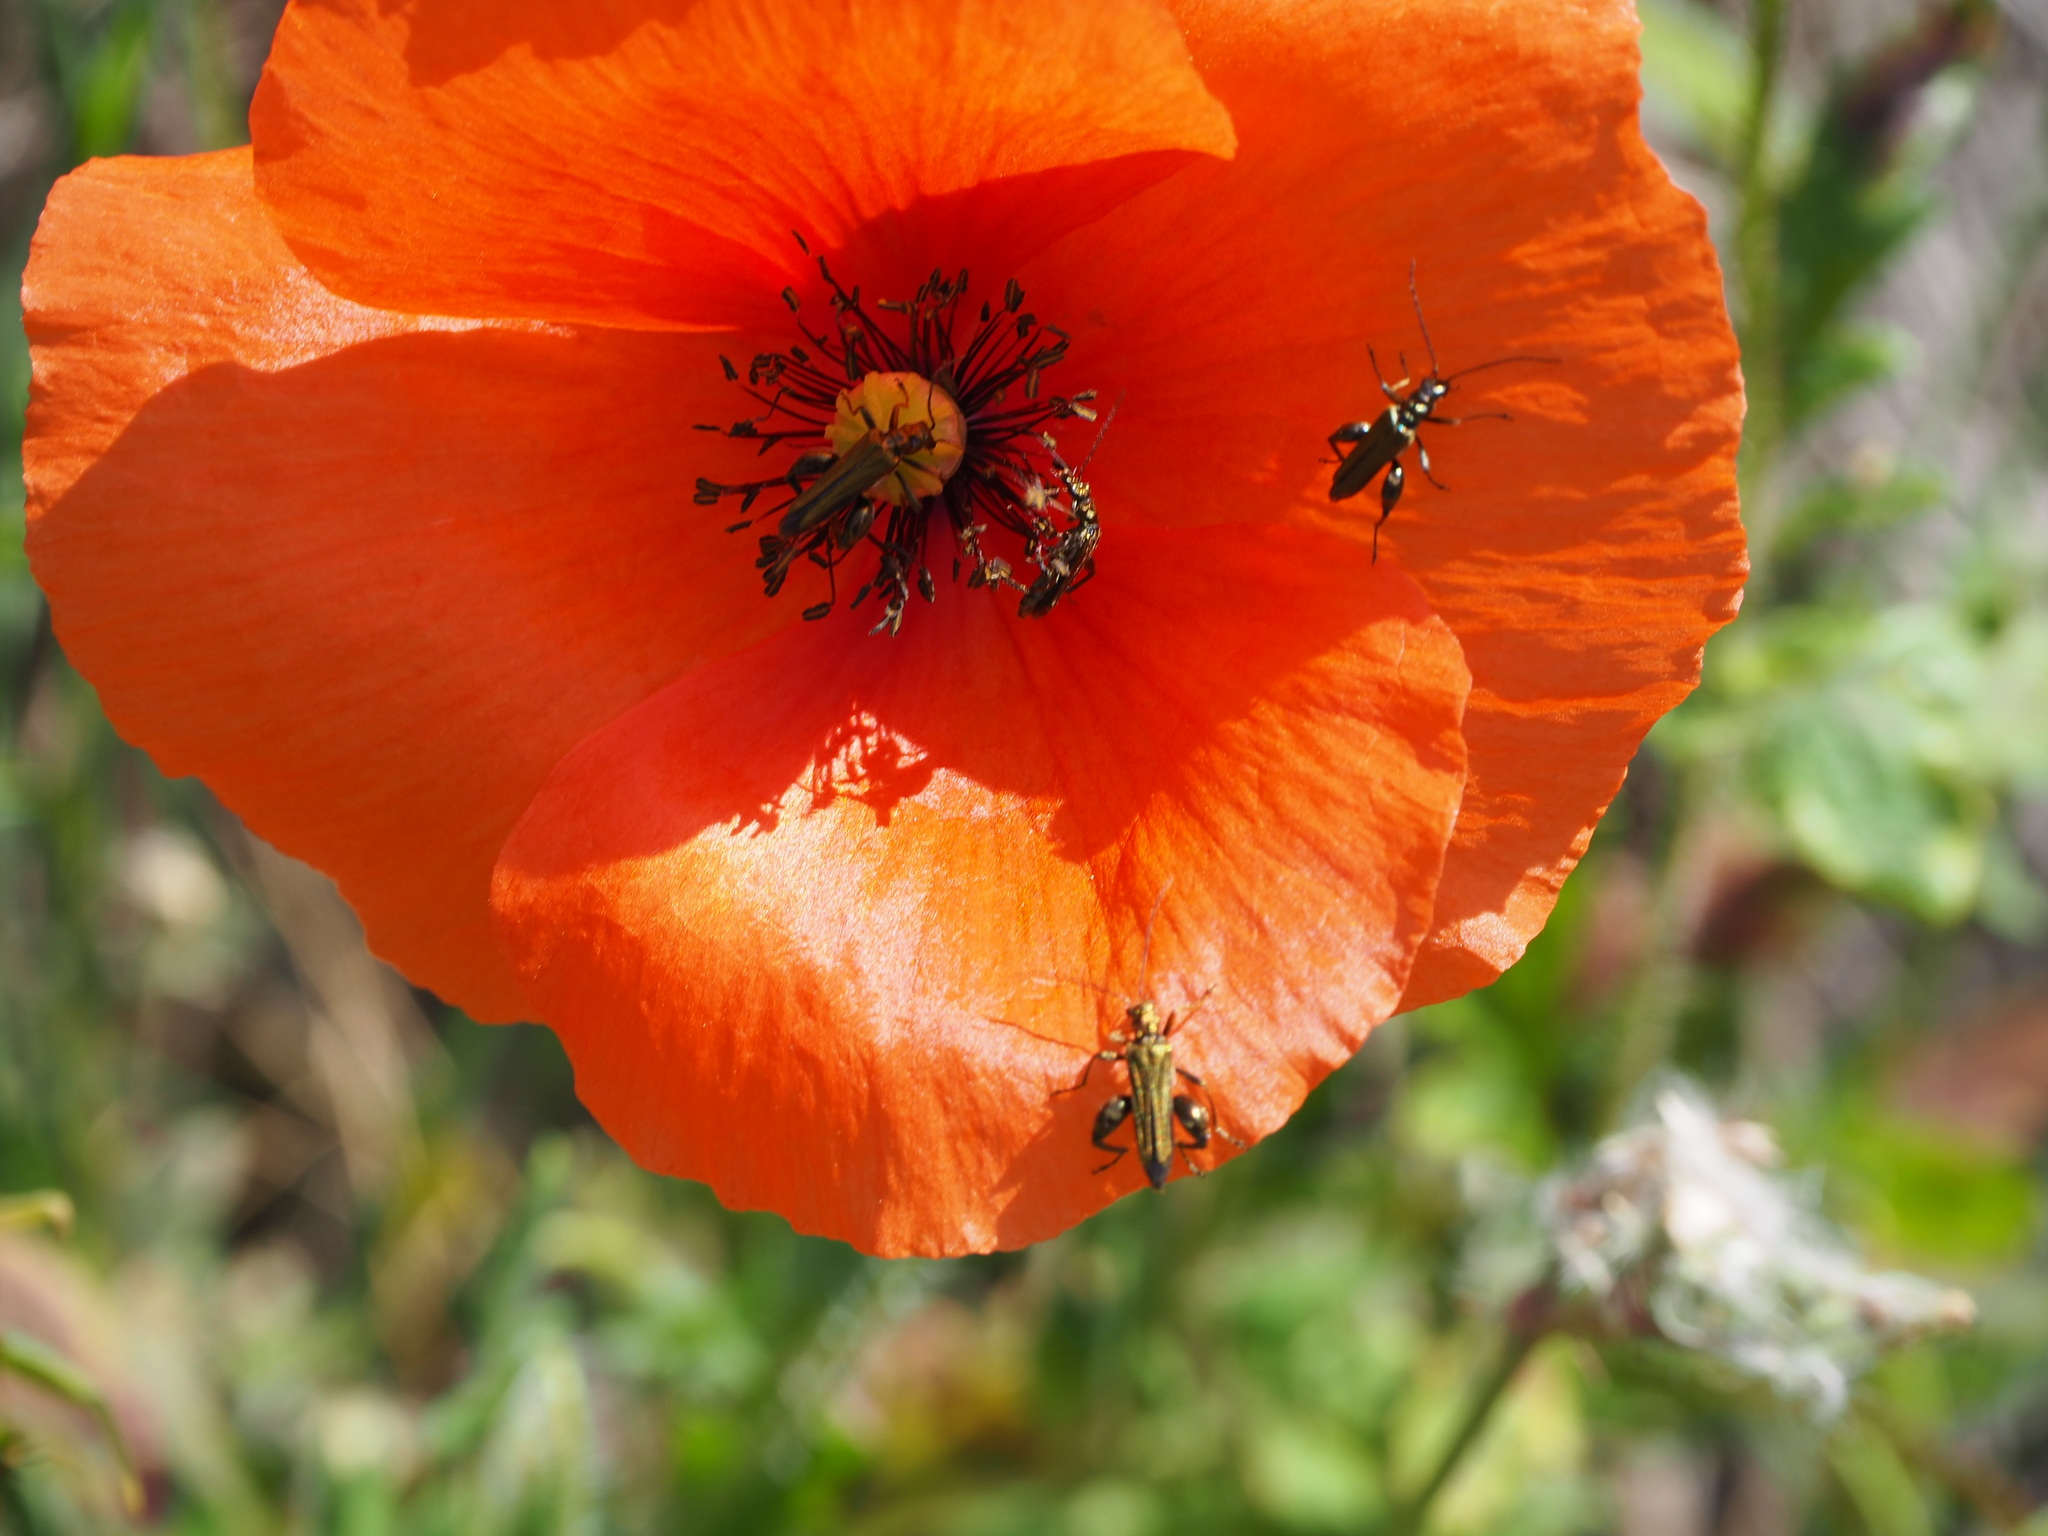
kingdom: Animalia
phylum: Arthropoda
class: Insecta
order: Coleoptera
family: Oedemeridae
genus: Oedemera
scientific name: Oedemera flavipes
